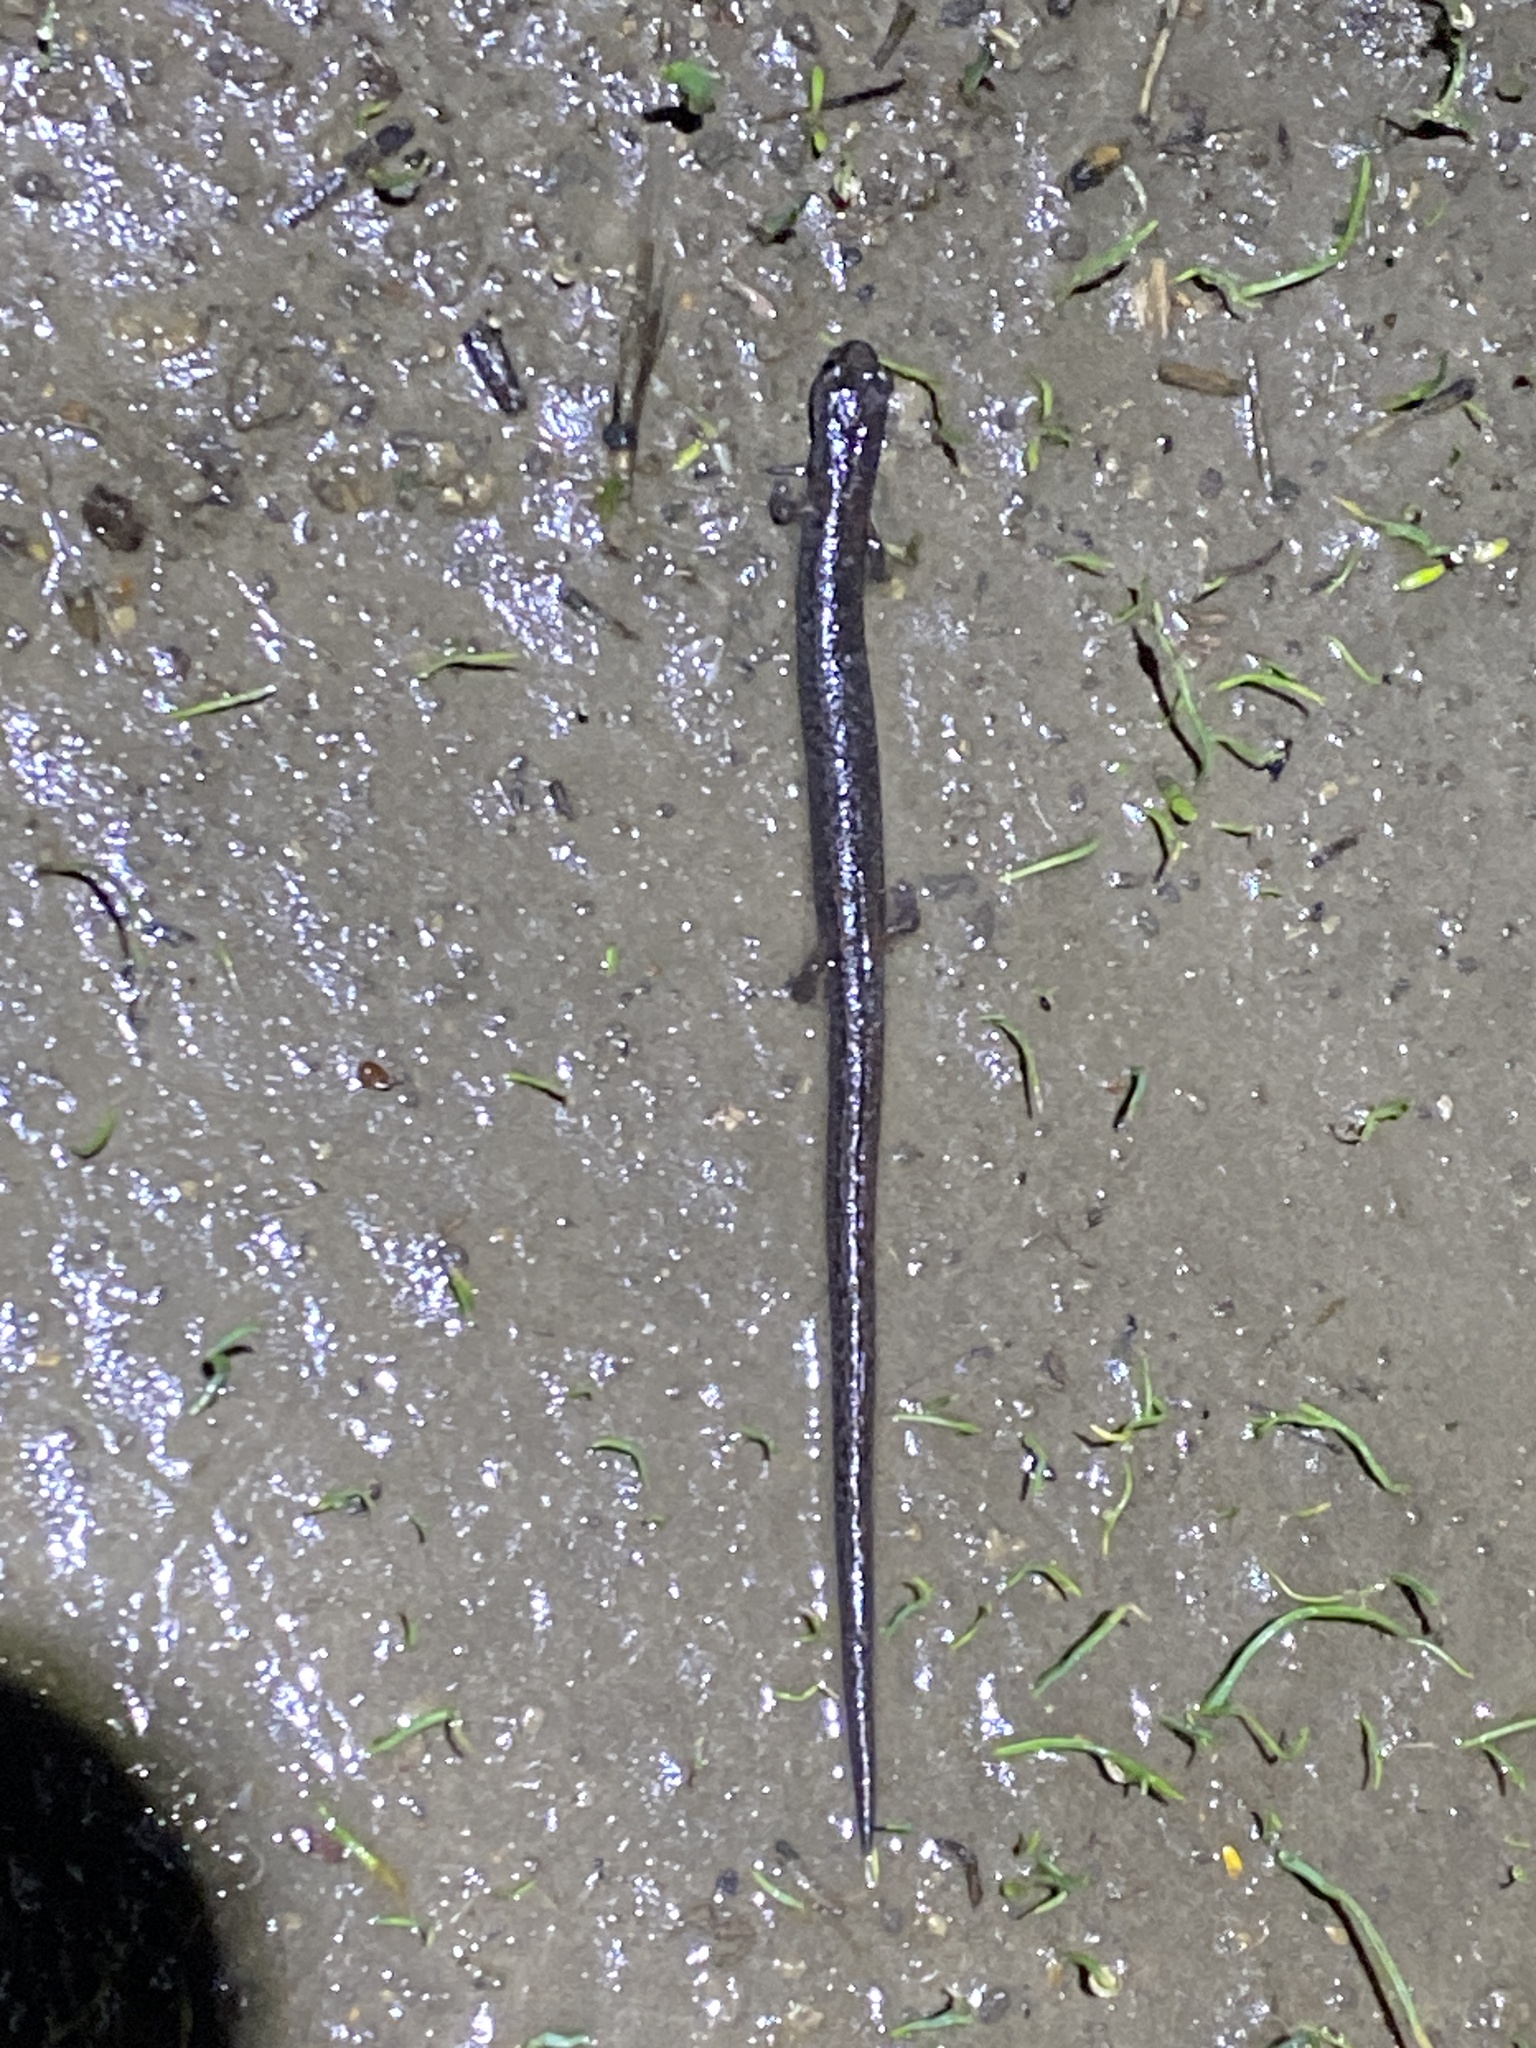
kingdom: Animalia
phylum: Chordata
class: Amphibia
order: Caudata
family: Plethodontidae
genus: Batrachoseps
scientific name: Batrachoseps attenuatus
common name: California slender salamander
